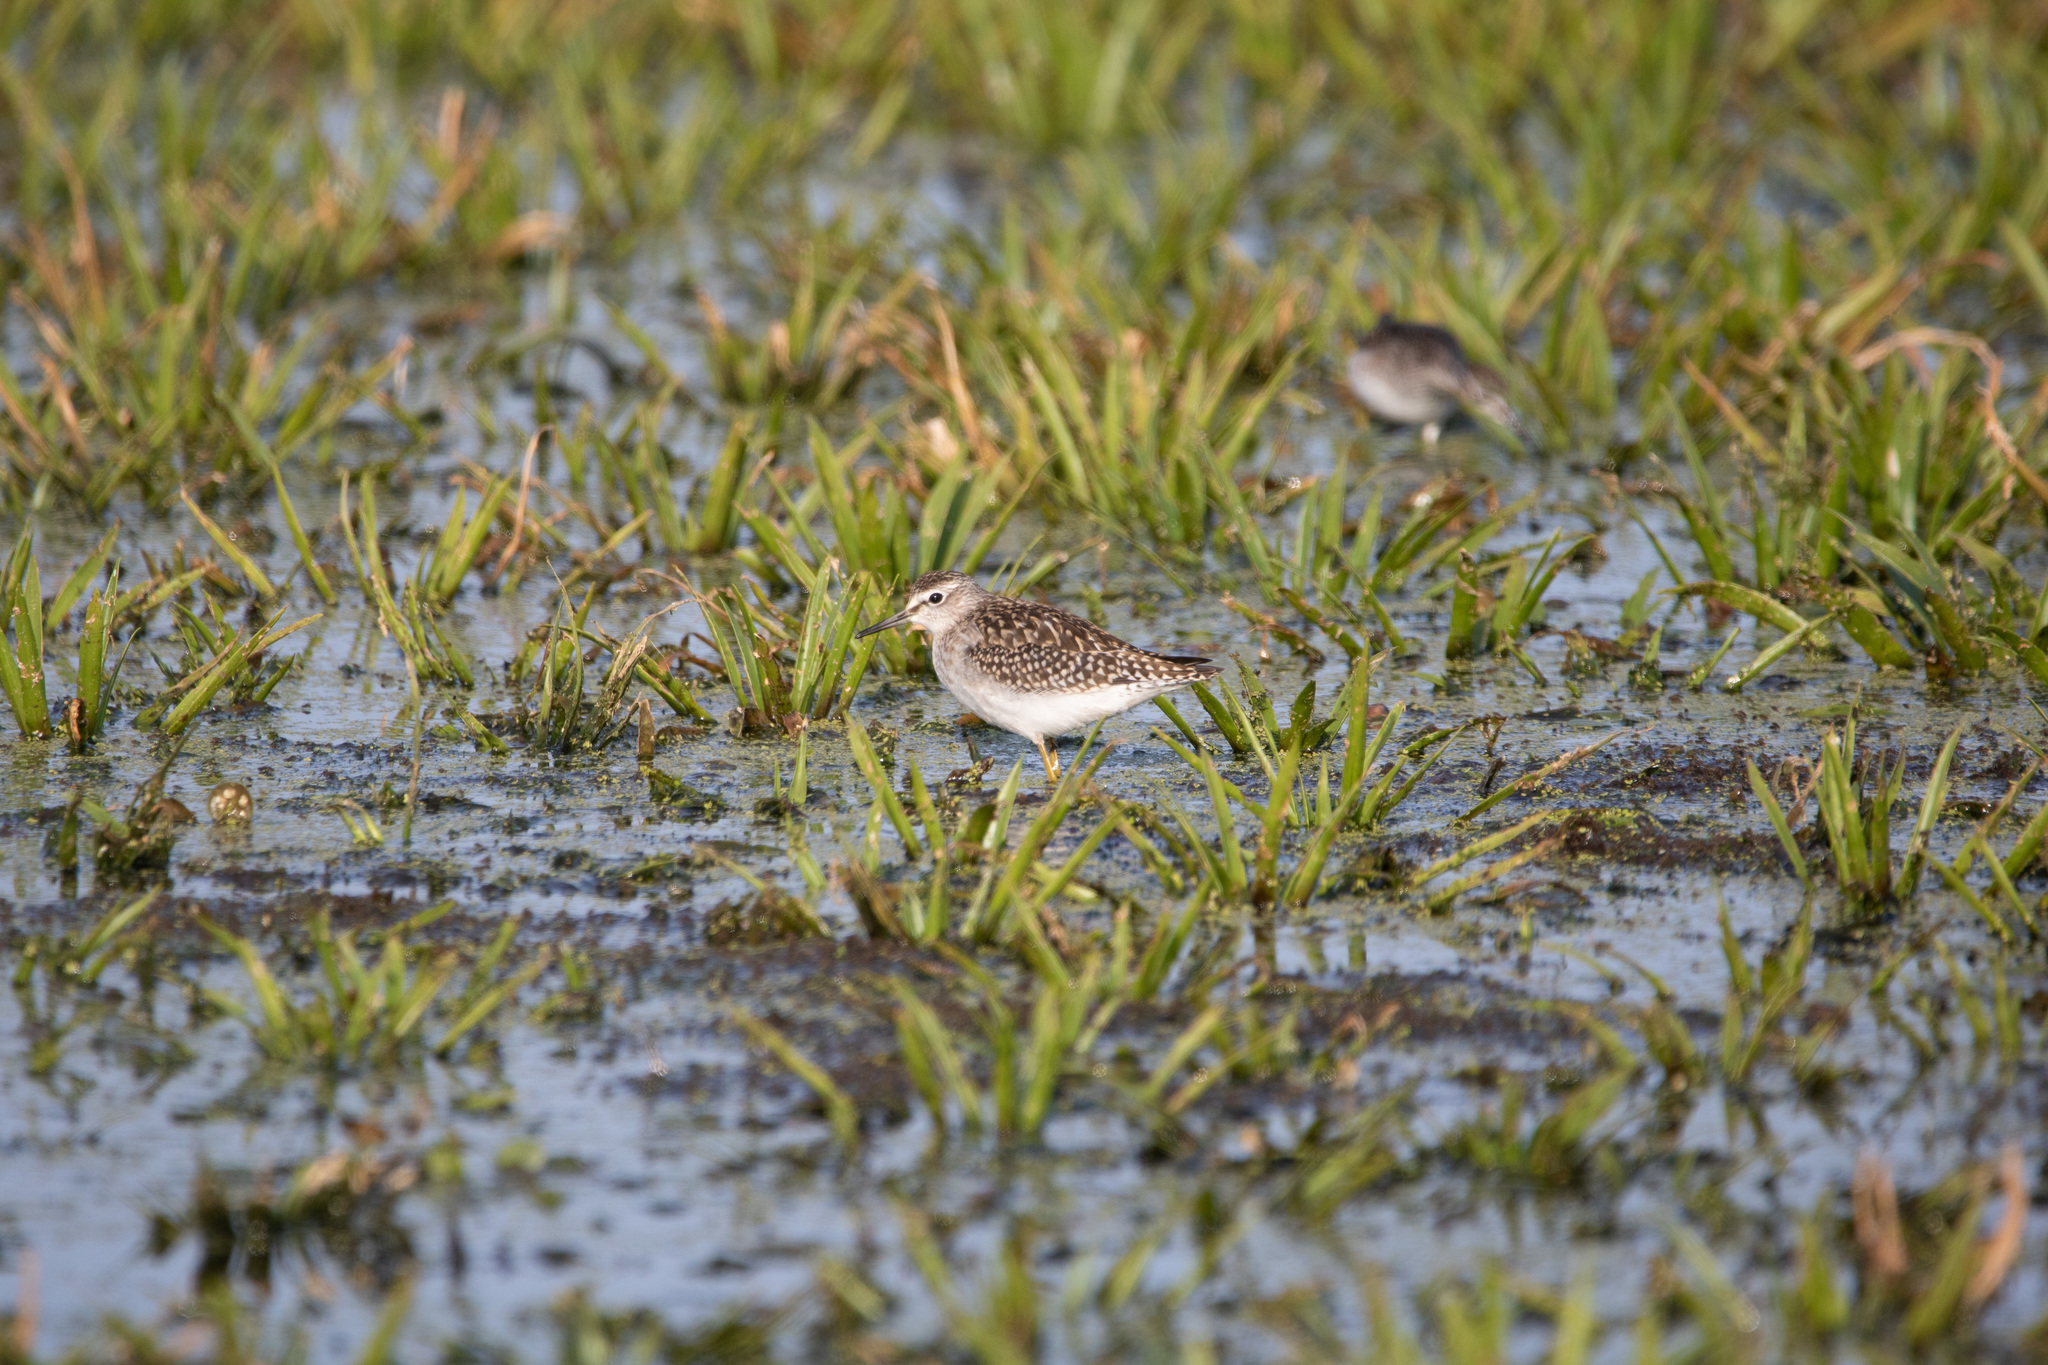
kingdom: Animalia
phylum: Chordata
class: Aves
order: Charadriiformes
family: Scolopacidae
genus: Tringa
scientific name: Tringa glareola
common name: Wood sandpiper
